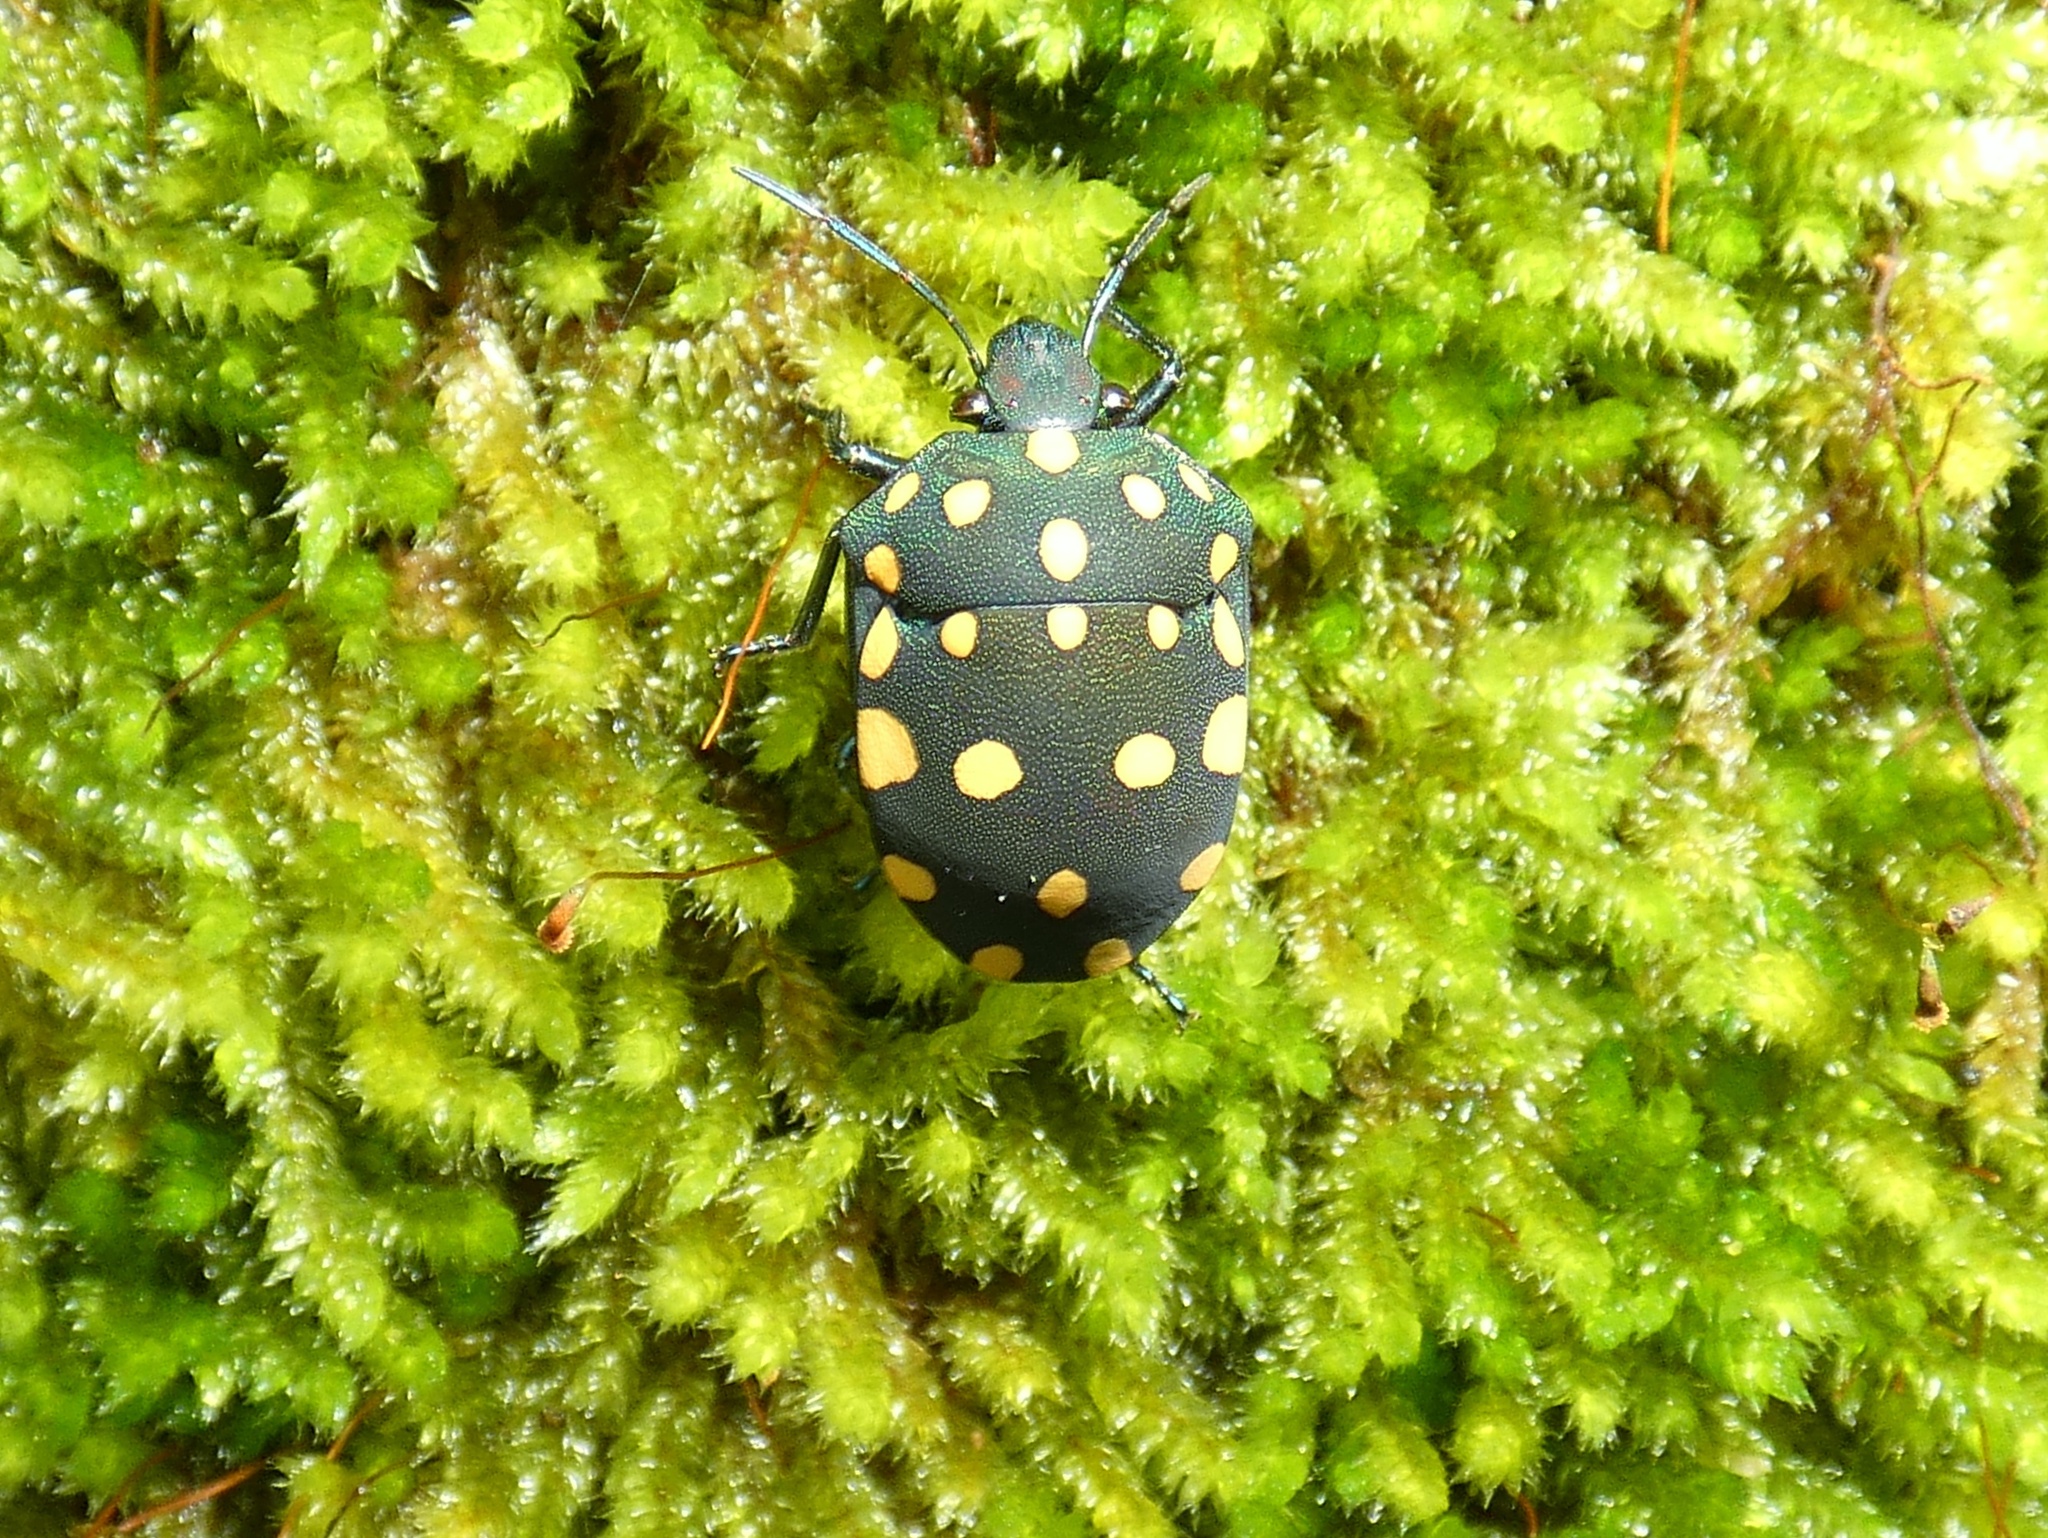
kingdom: Animalia
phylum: Arthropoda
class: Insecta
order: Hemiptera
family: Scutelleridae
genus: Pachycoris
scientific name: Pachycoris torridus
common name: Torrid jewel bug
